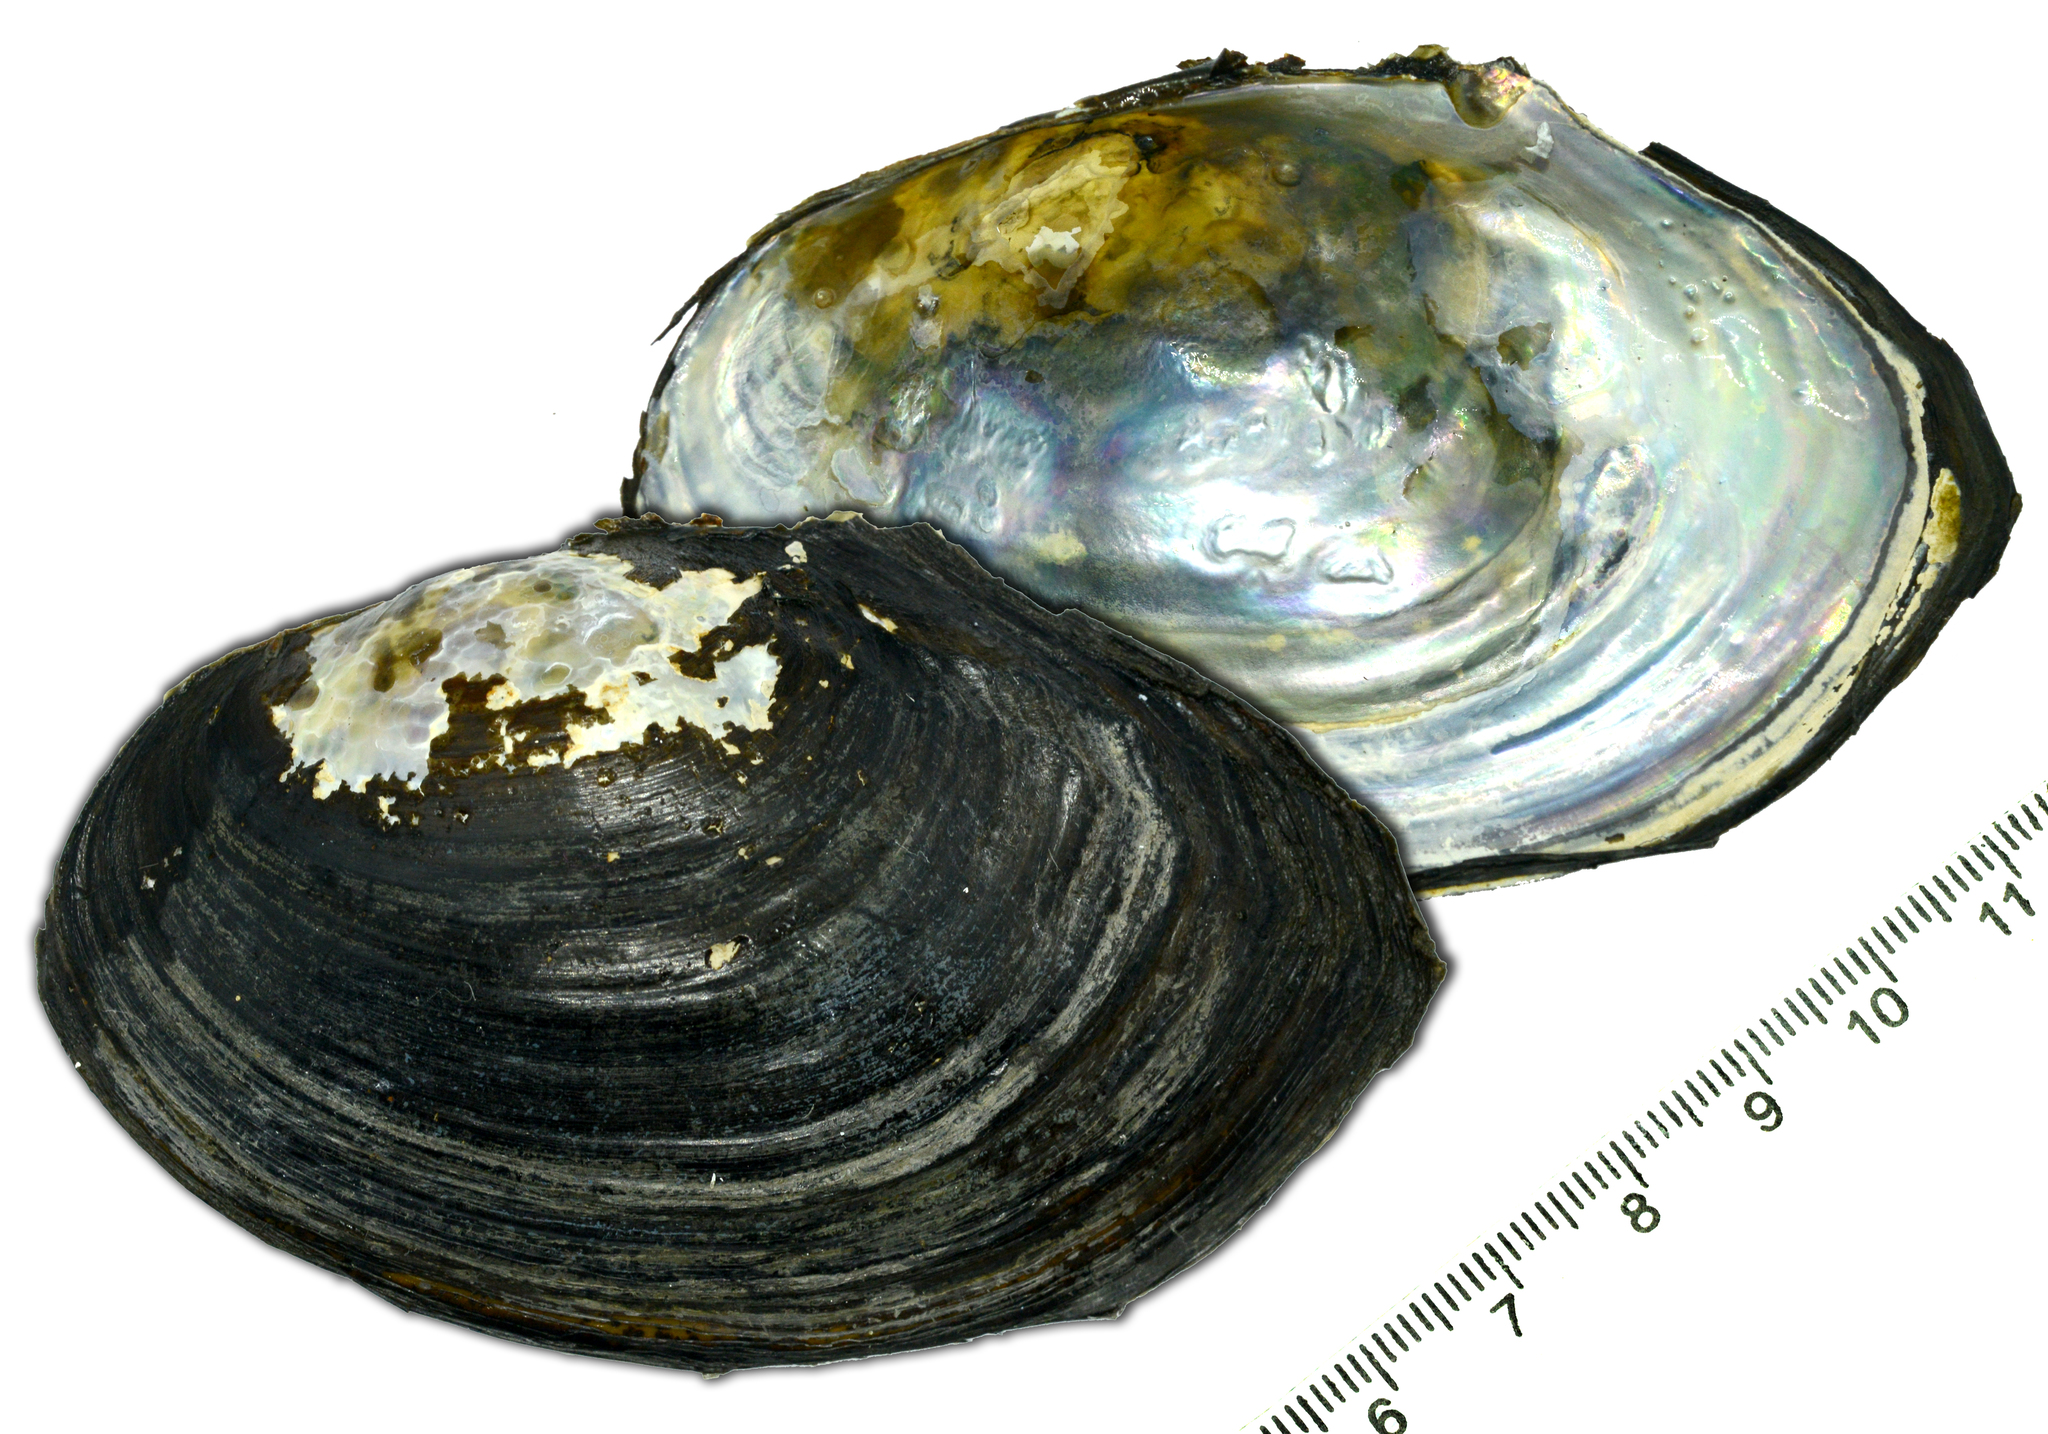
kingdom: Animalia
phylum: Mollusca
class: Bivalvia
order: Unionida
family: Unionidae
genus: Sinanodonta
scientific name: Sinanodonta lauta
